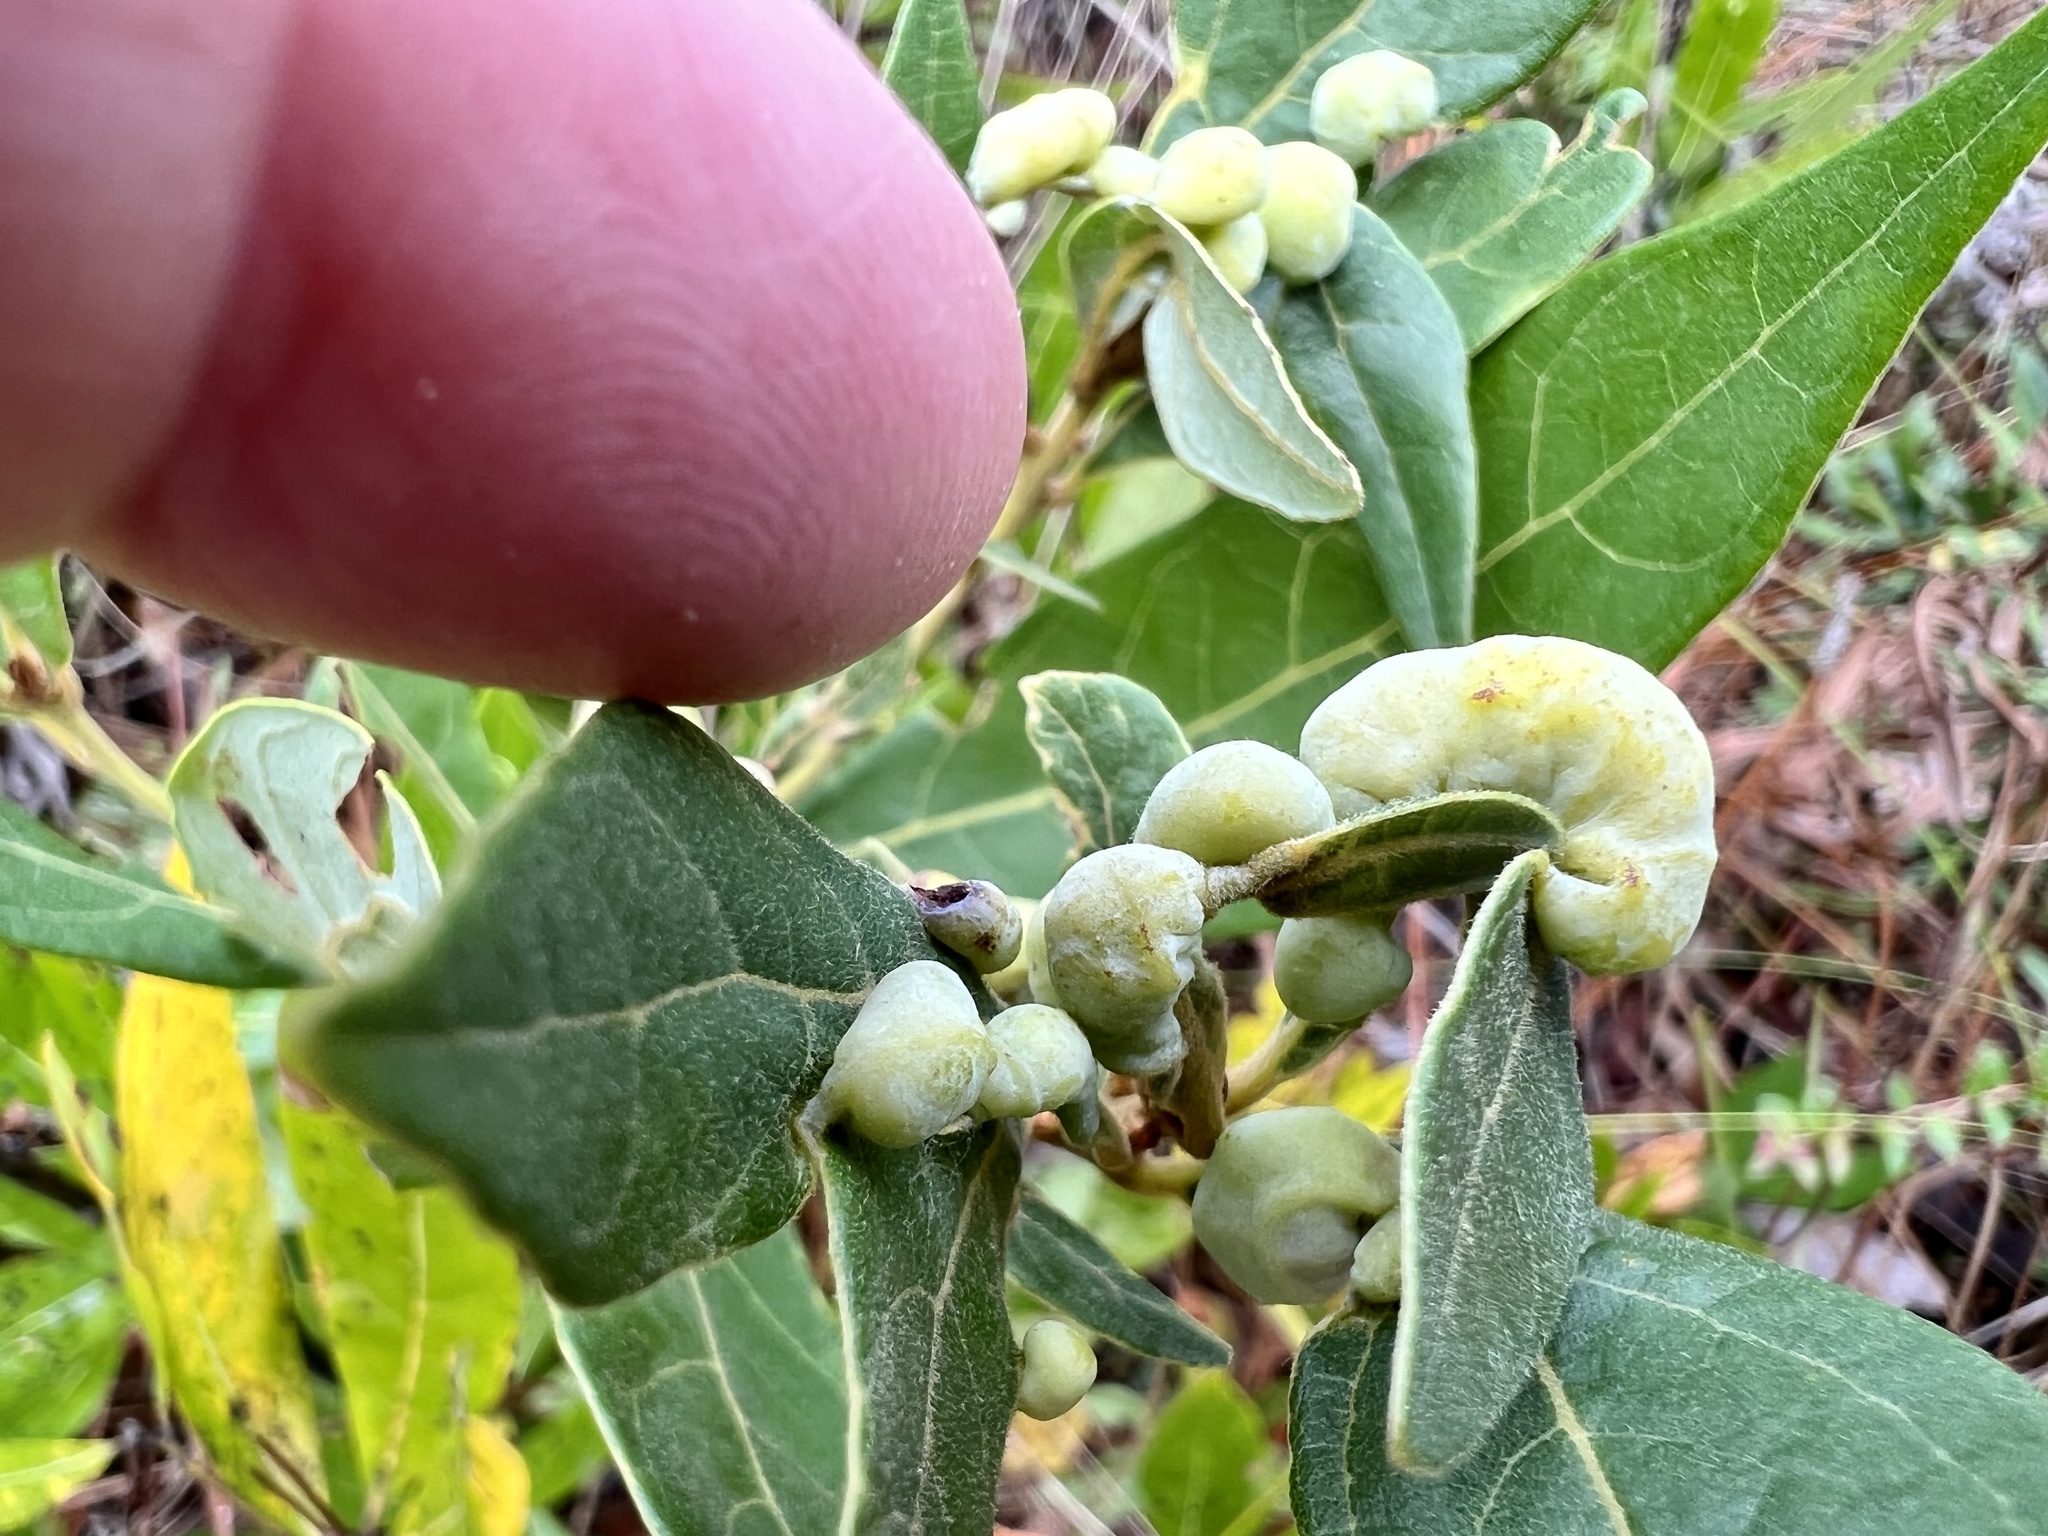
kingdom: Animalia
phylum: Arthropoda
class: Insecta
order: Hemiptera
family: Triozidae
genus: Trioza
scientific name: Trioza magnoliae
